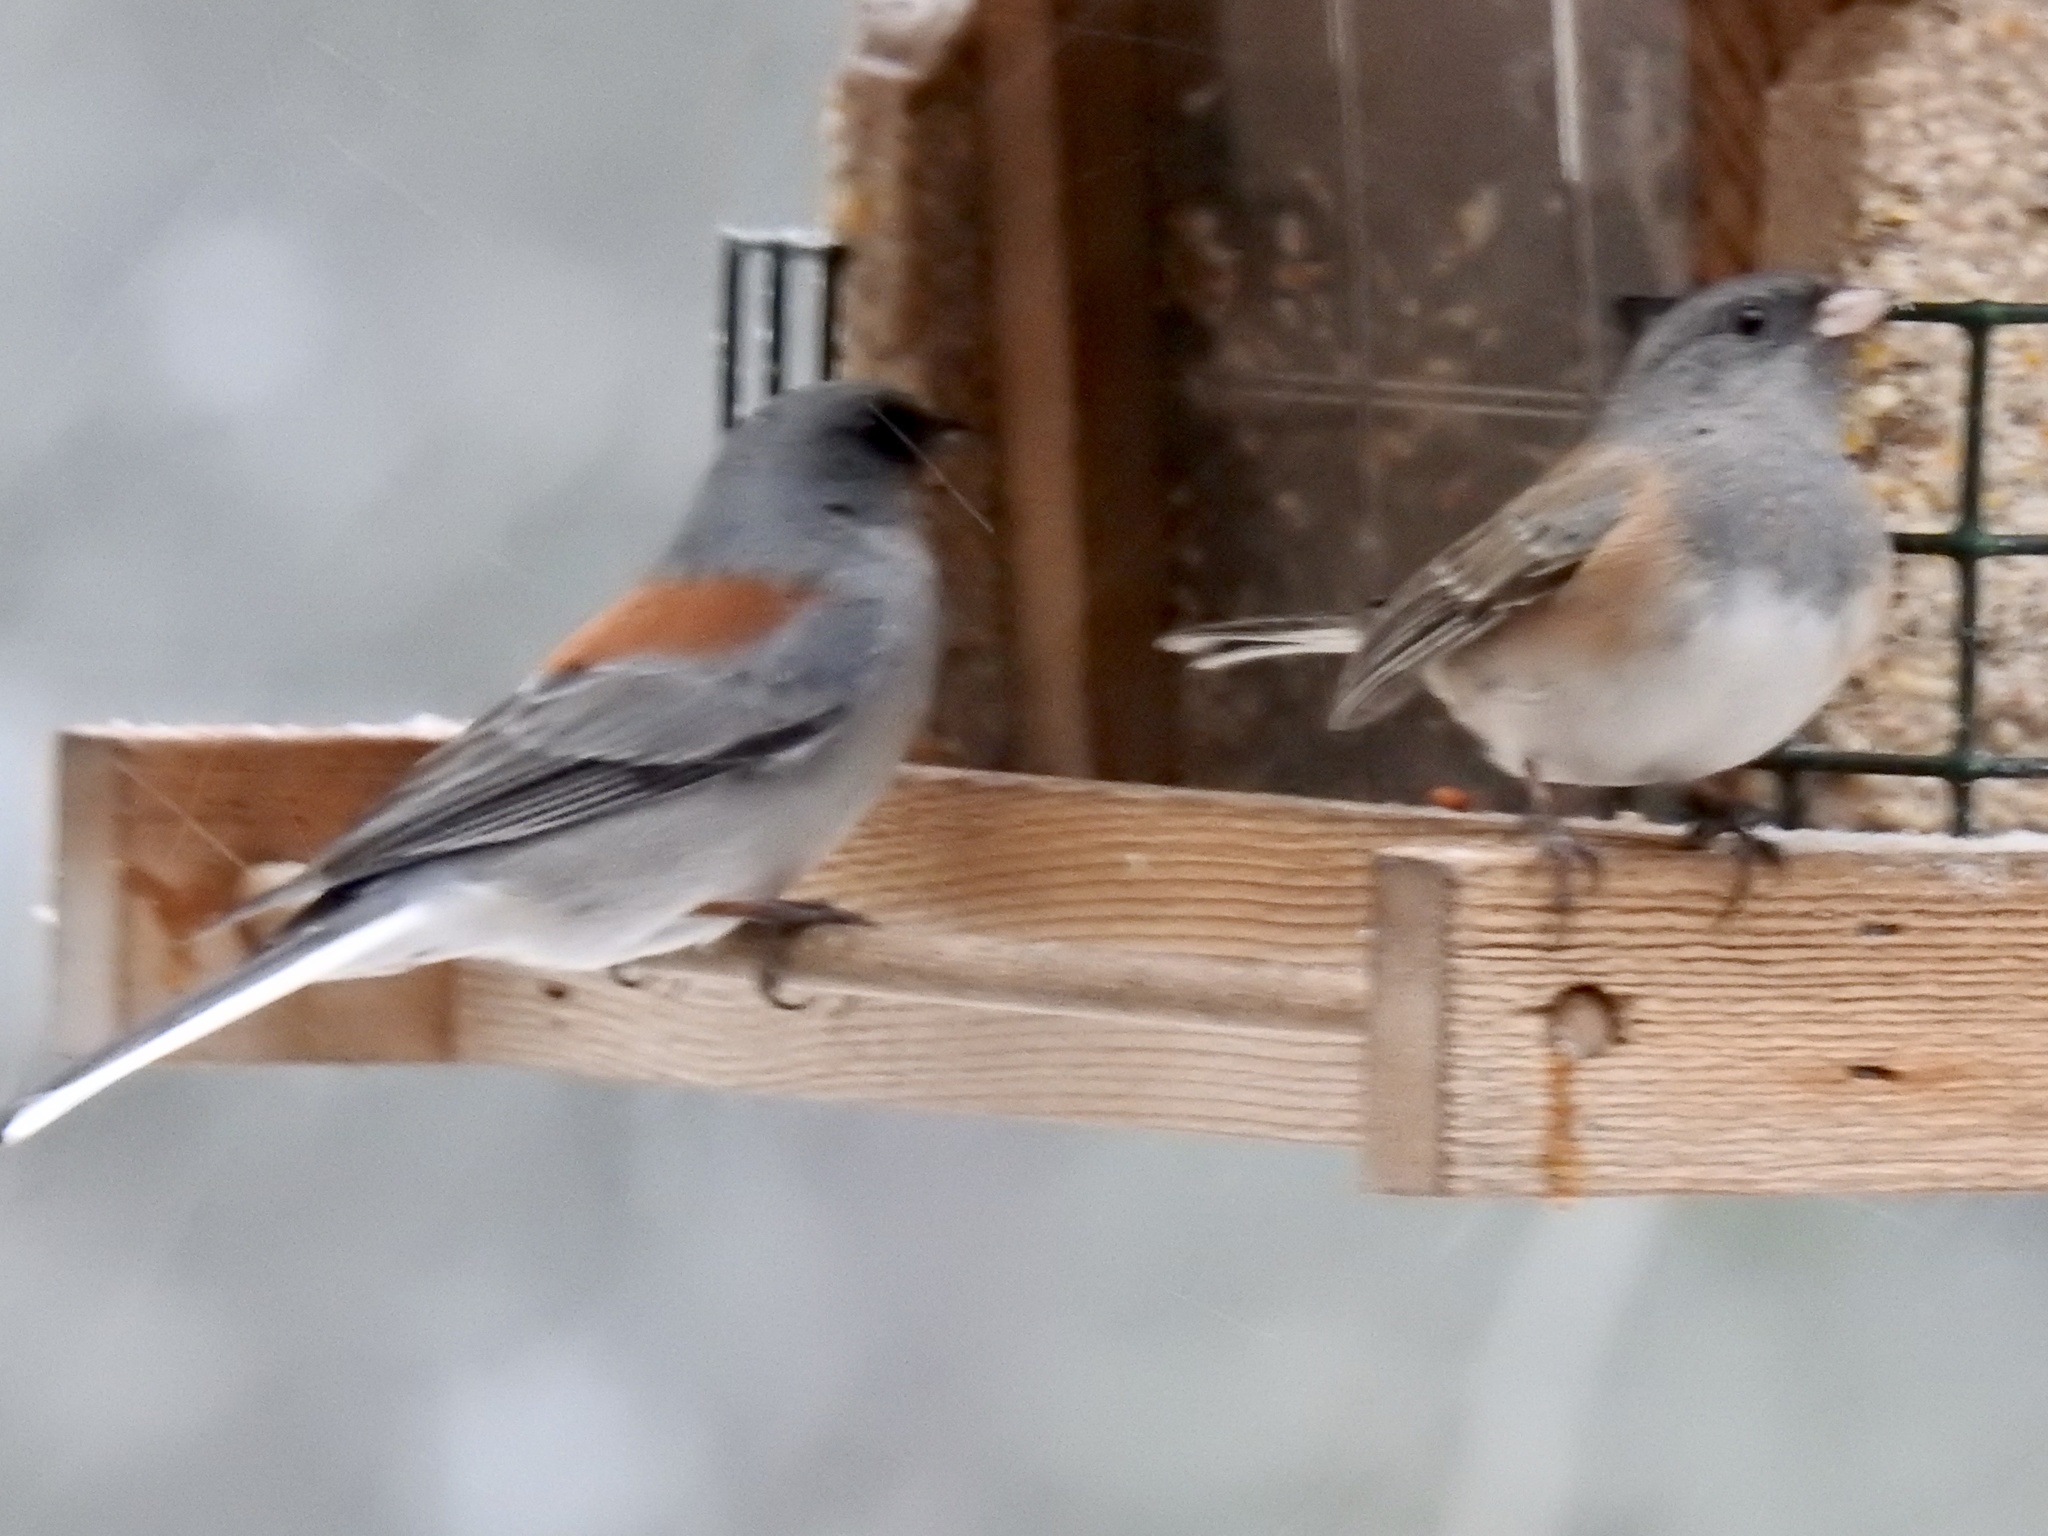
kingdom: Animalia
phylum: Chordata
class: Aves
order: Passeriformes
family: Passerellidae
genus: Junco
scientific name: Junco hyemalis
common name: Dark-eyed junco
